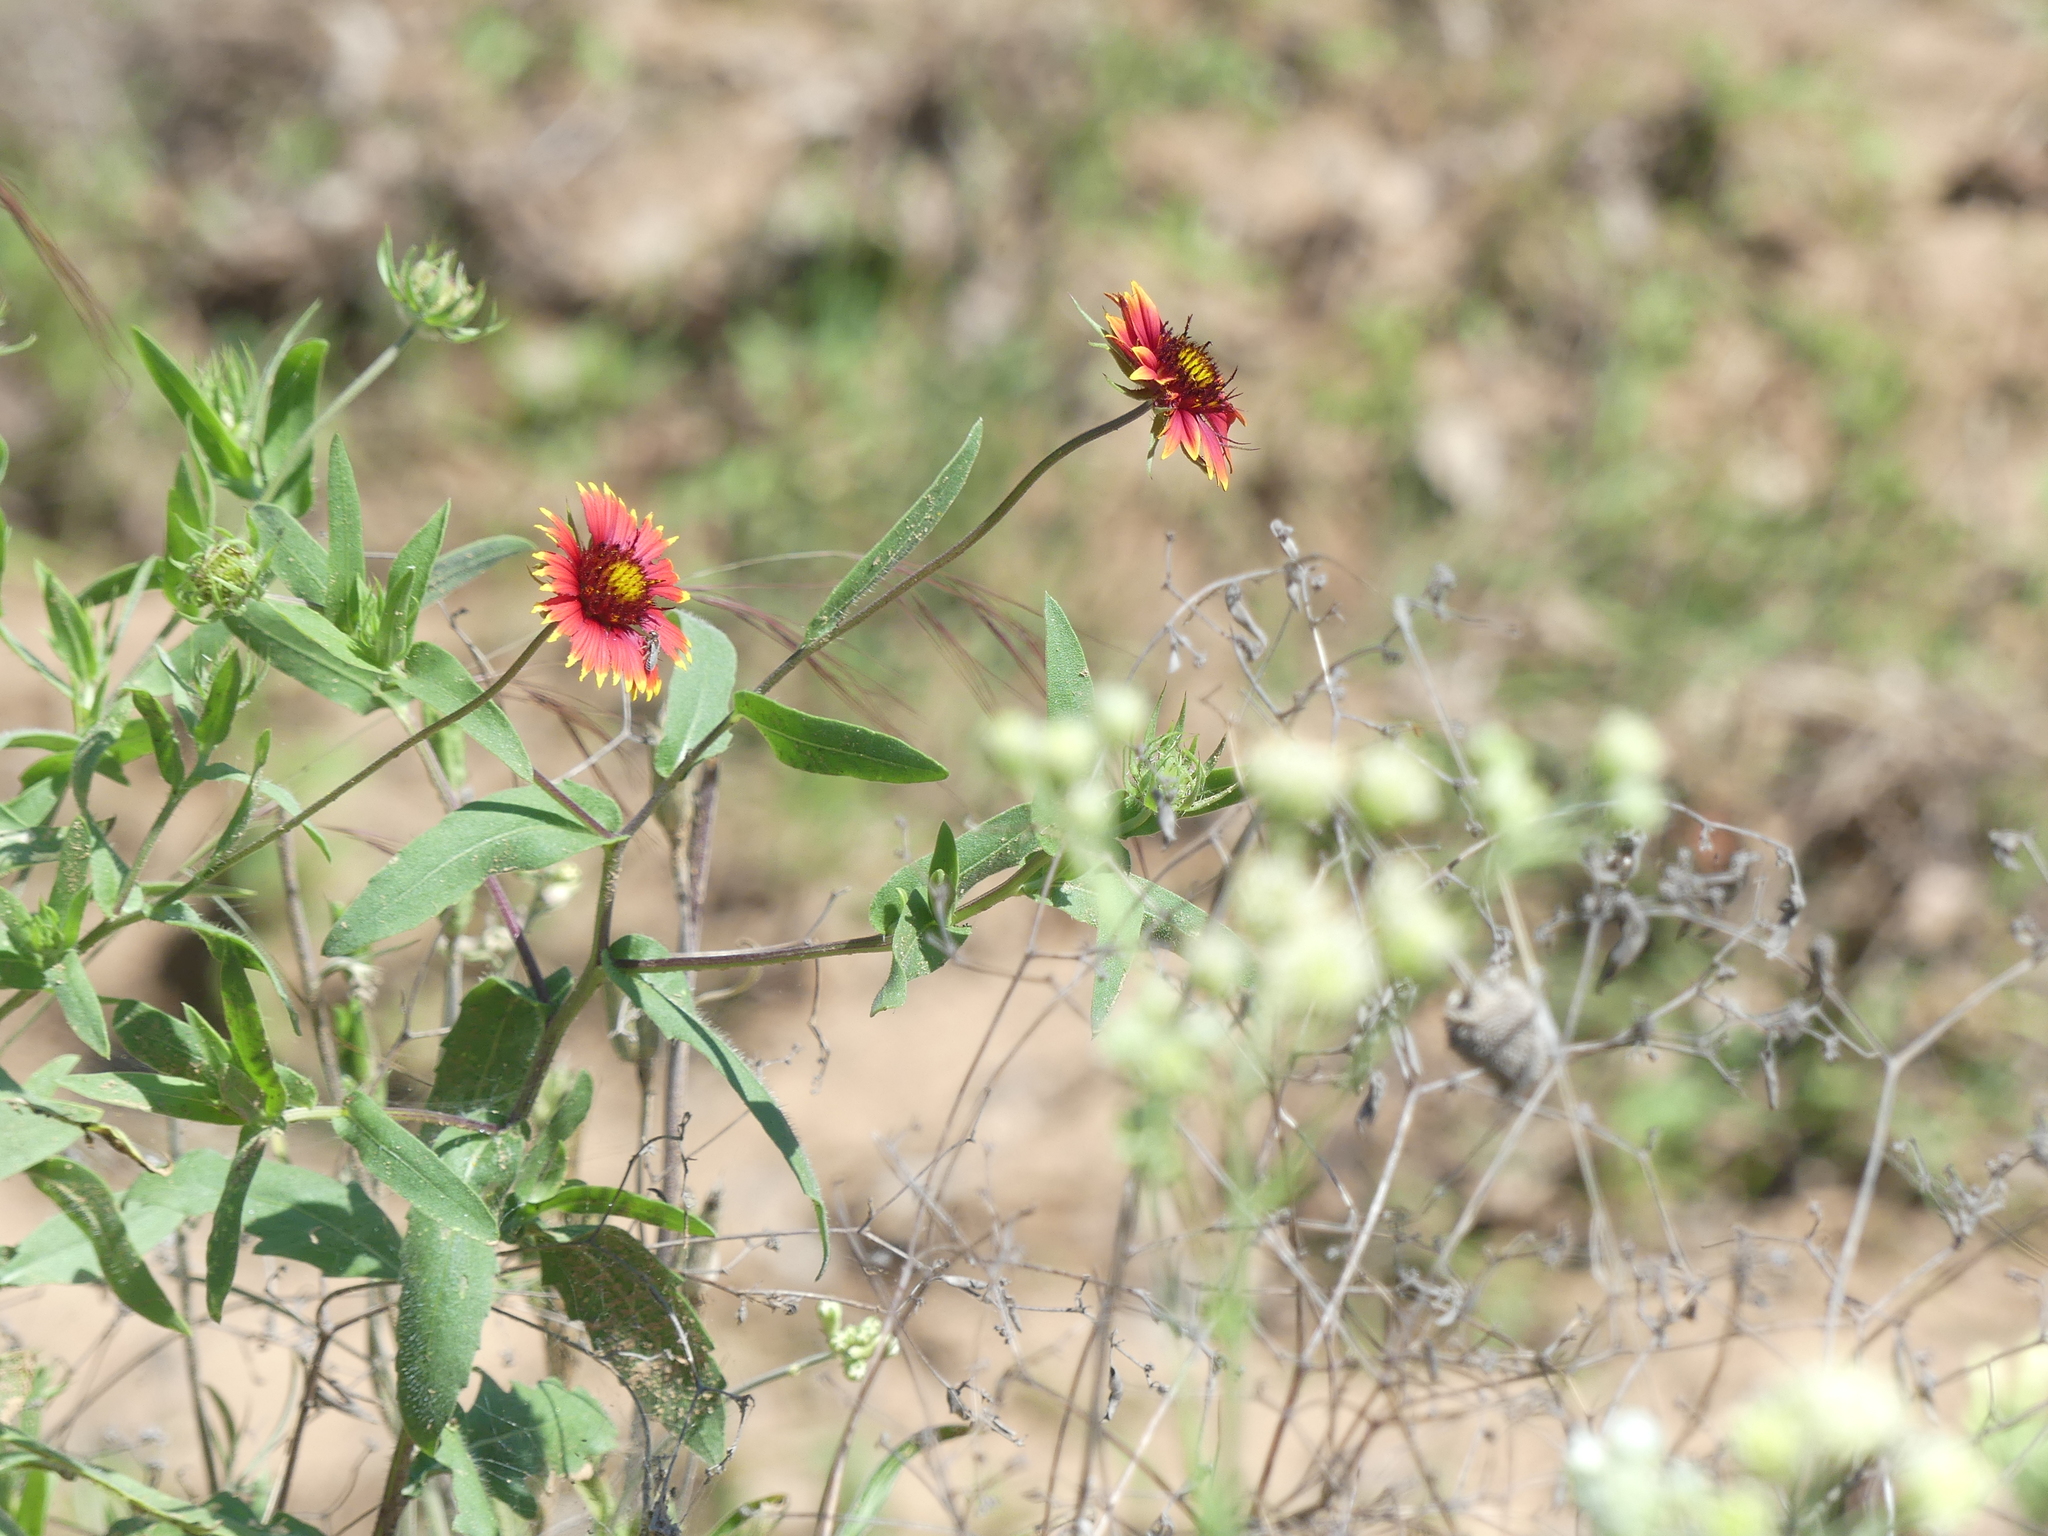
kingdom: Plantae
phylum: Tracheophyta
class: Magnoliopsida
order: Asterales
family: Asteraceae
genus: Gaillardia
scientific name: Gaillardia pulchella
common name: Firewheel
